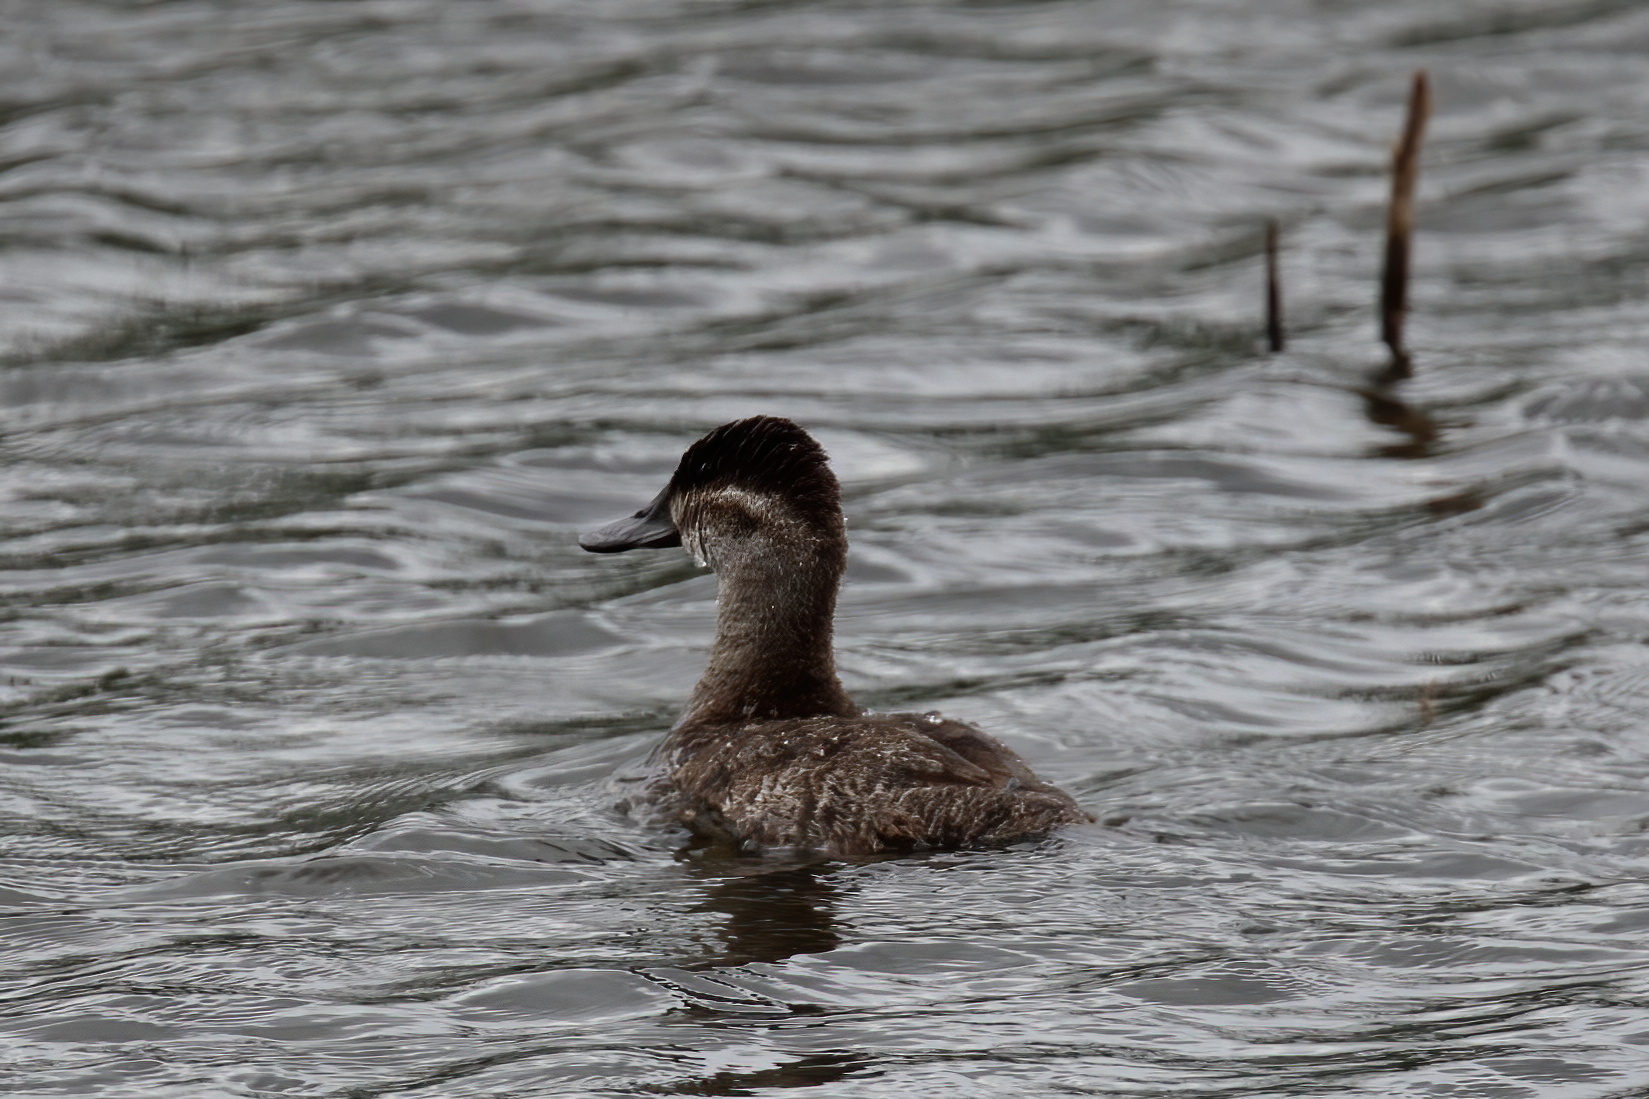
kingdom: Animalia
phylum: Chordata
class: Aves
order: Anseriformes
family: Anatidae
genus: Oxyura
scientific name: Oxyura jamaicensis
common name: Ruddy duck
